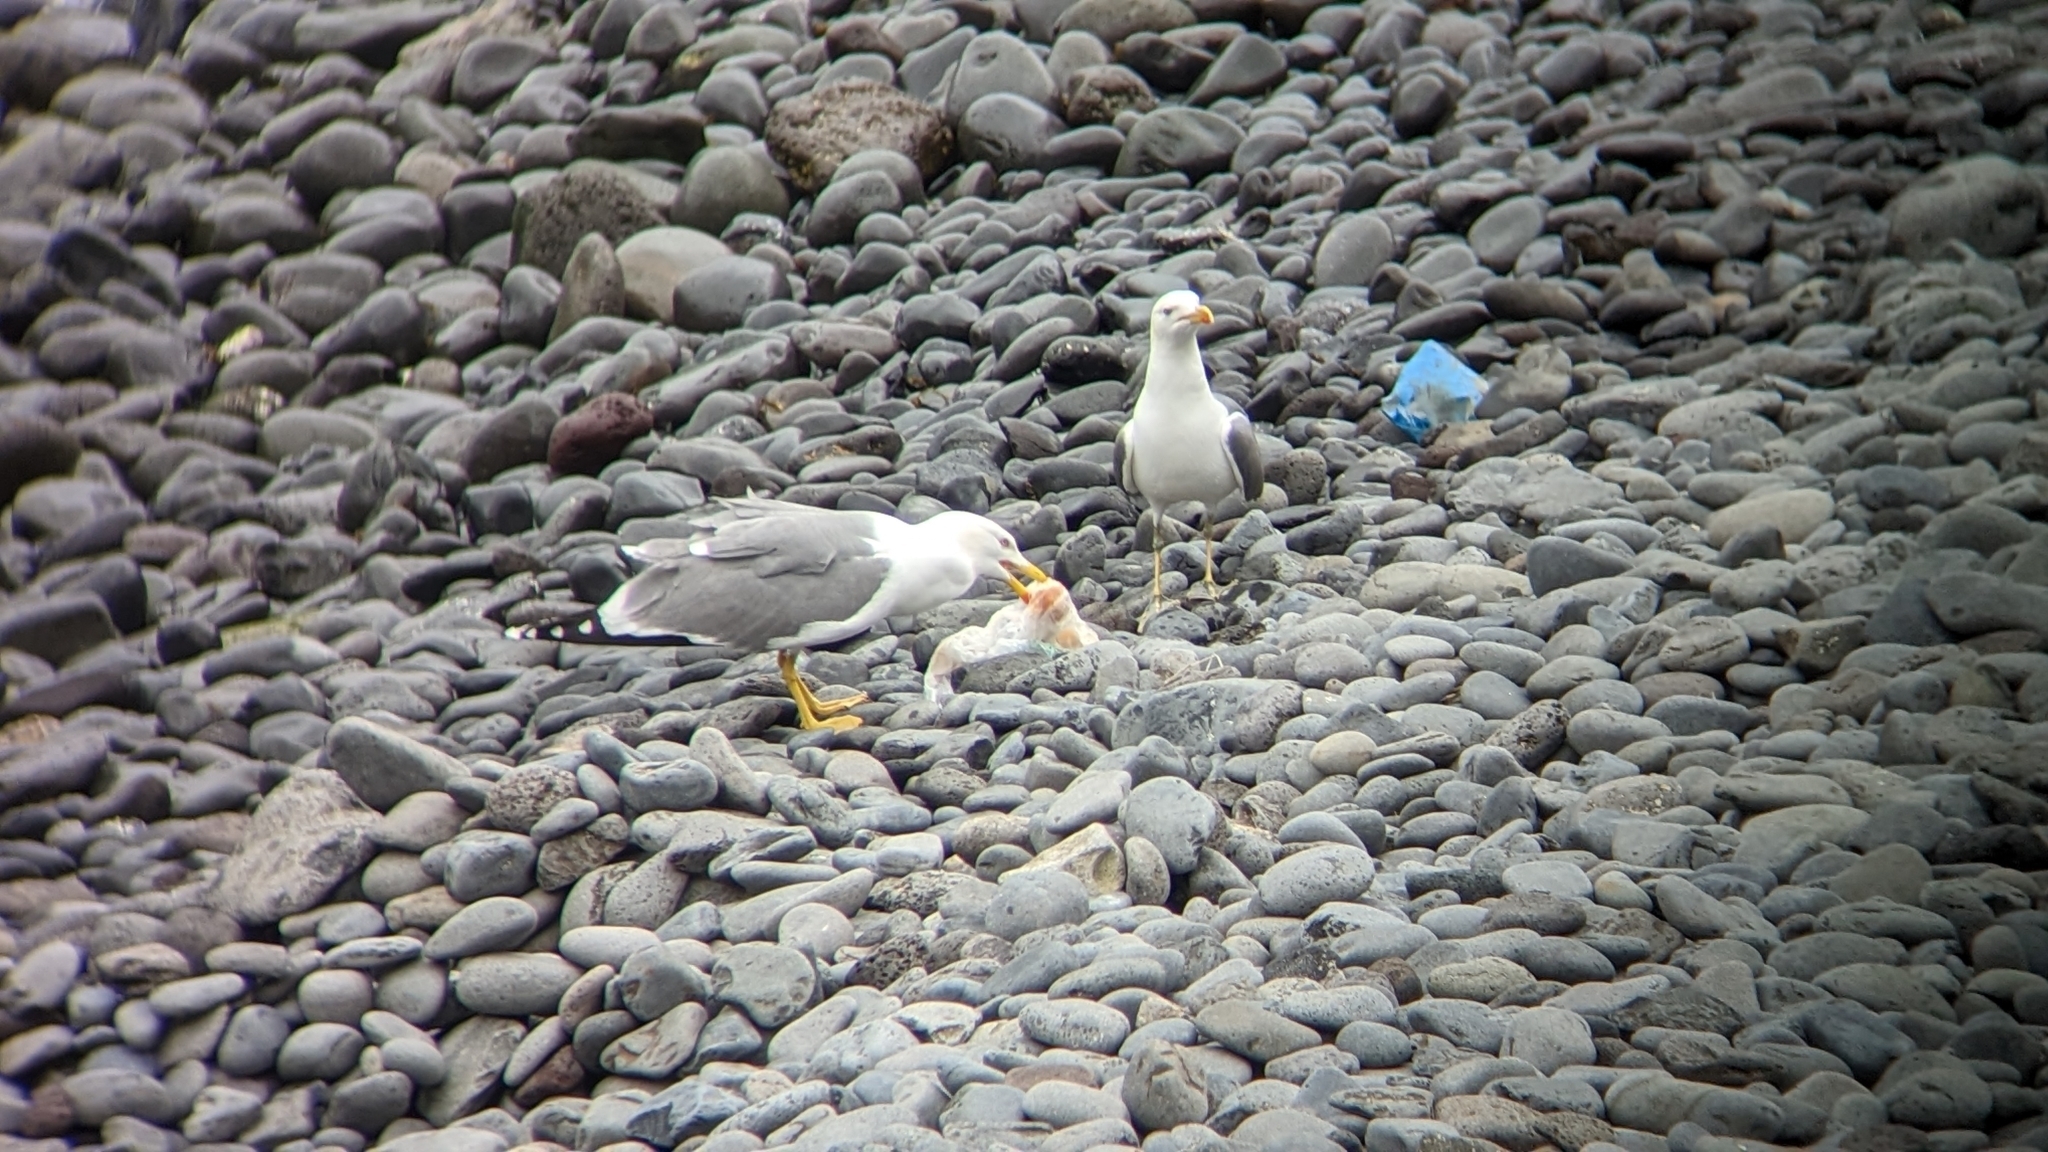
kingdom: Animalia
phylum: Chordata
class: Aves
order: Charadriiformes
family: Laridae
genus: Larus
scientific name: Larus michahellis
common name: Yellow-legged gull
